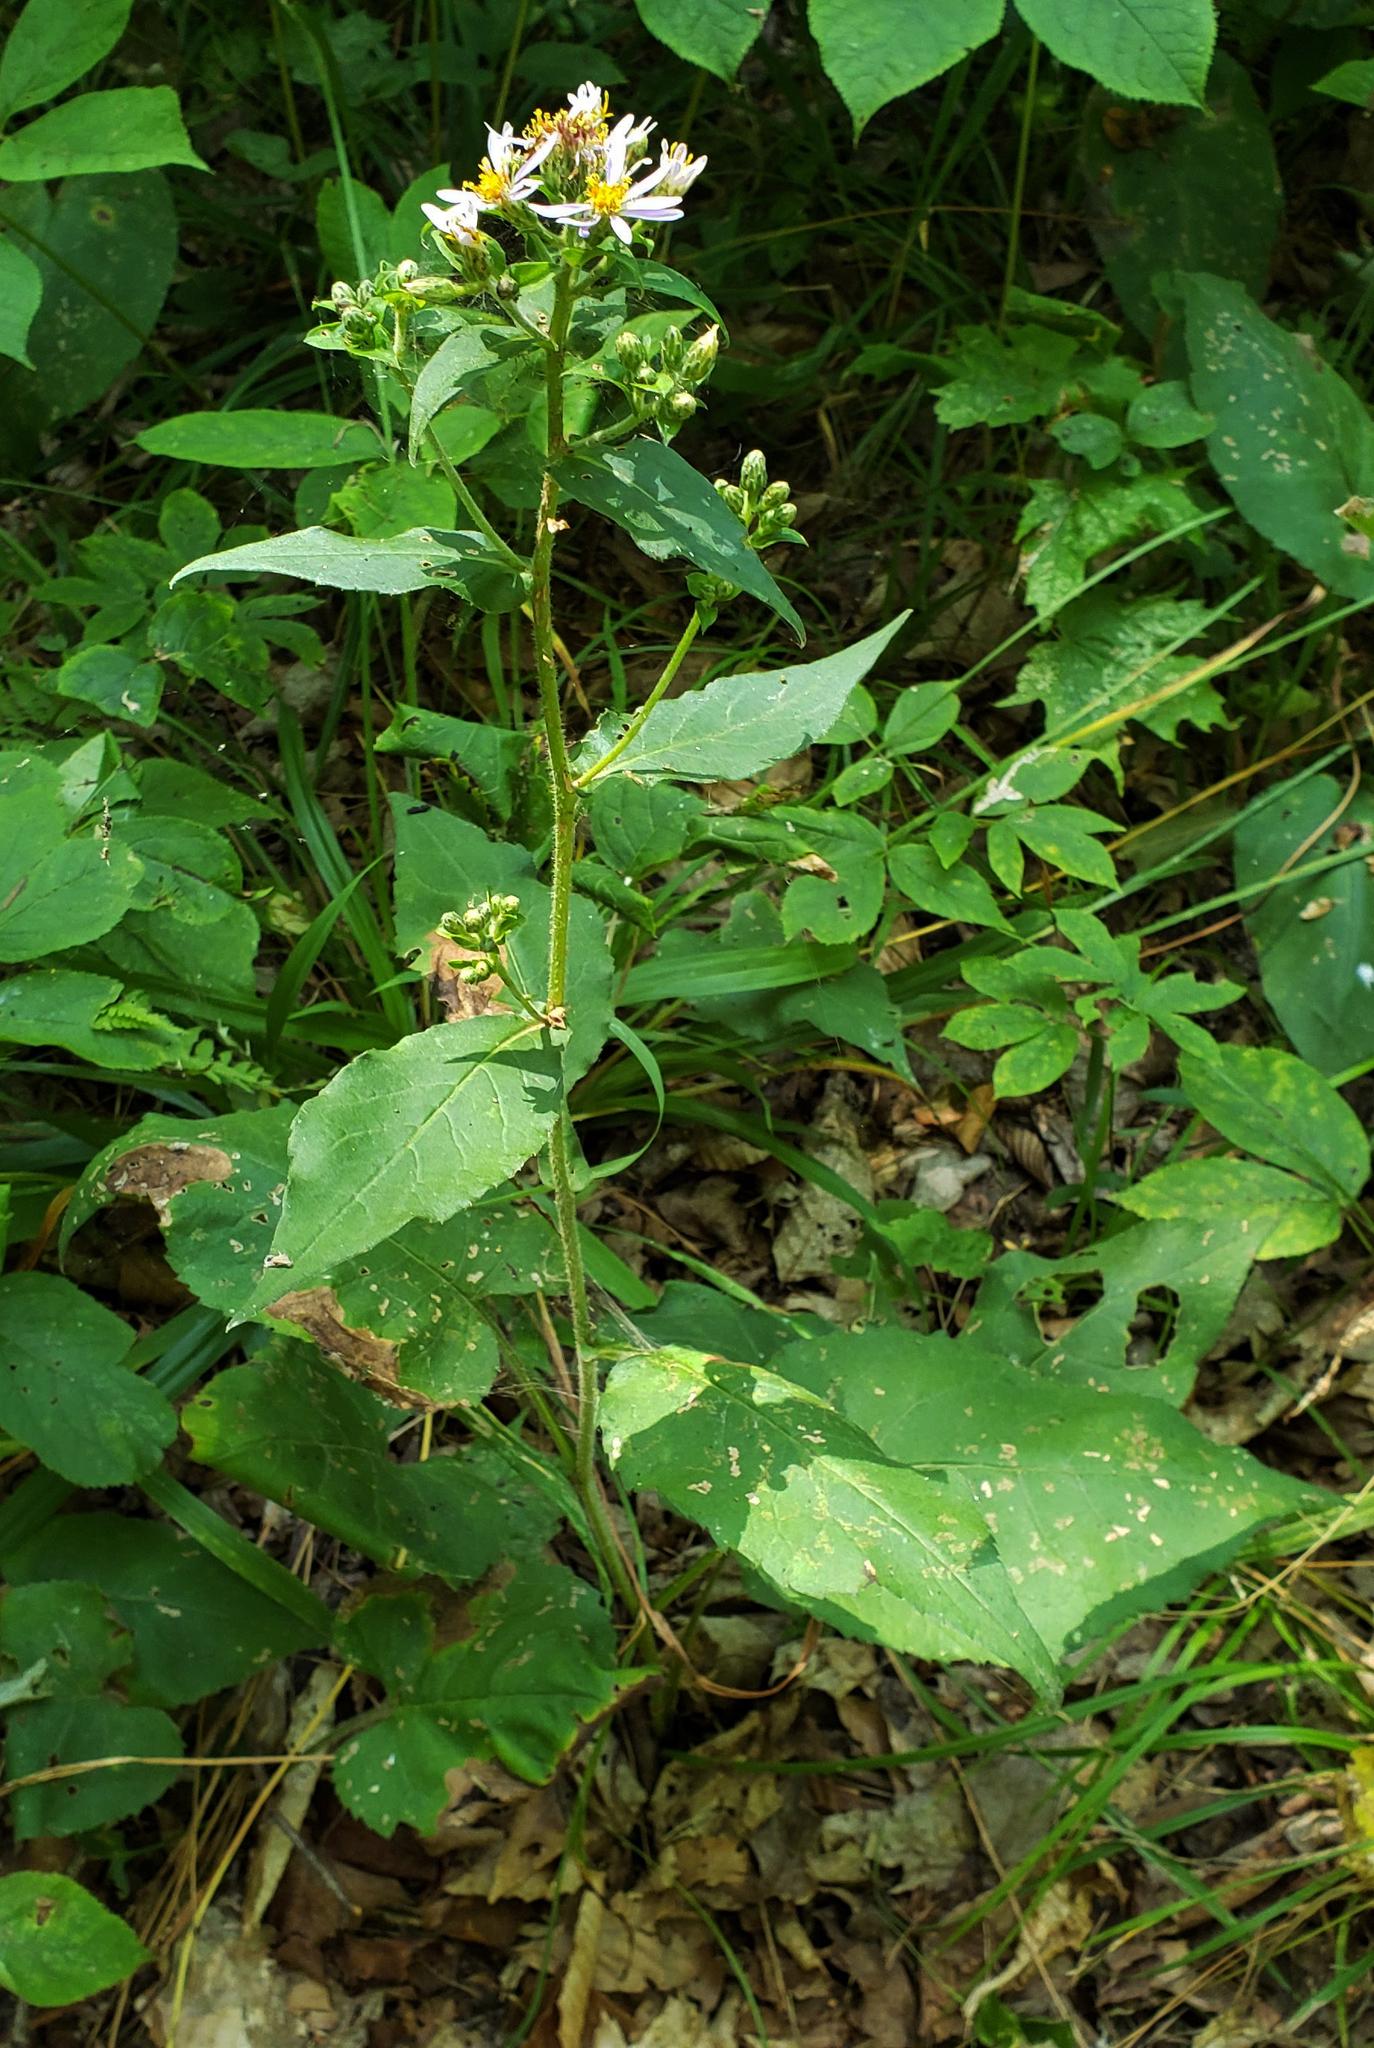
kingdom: Plantae
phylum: Tracheophyta
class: Magnoliopsida
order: Asterales
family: Asteraceae
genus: Eurybia
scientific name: Eurybia macrophylla
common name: Big-leaved aster
